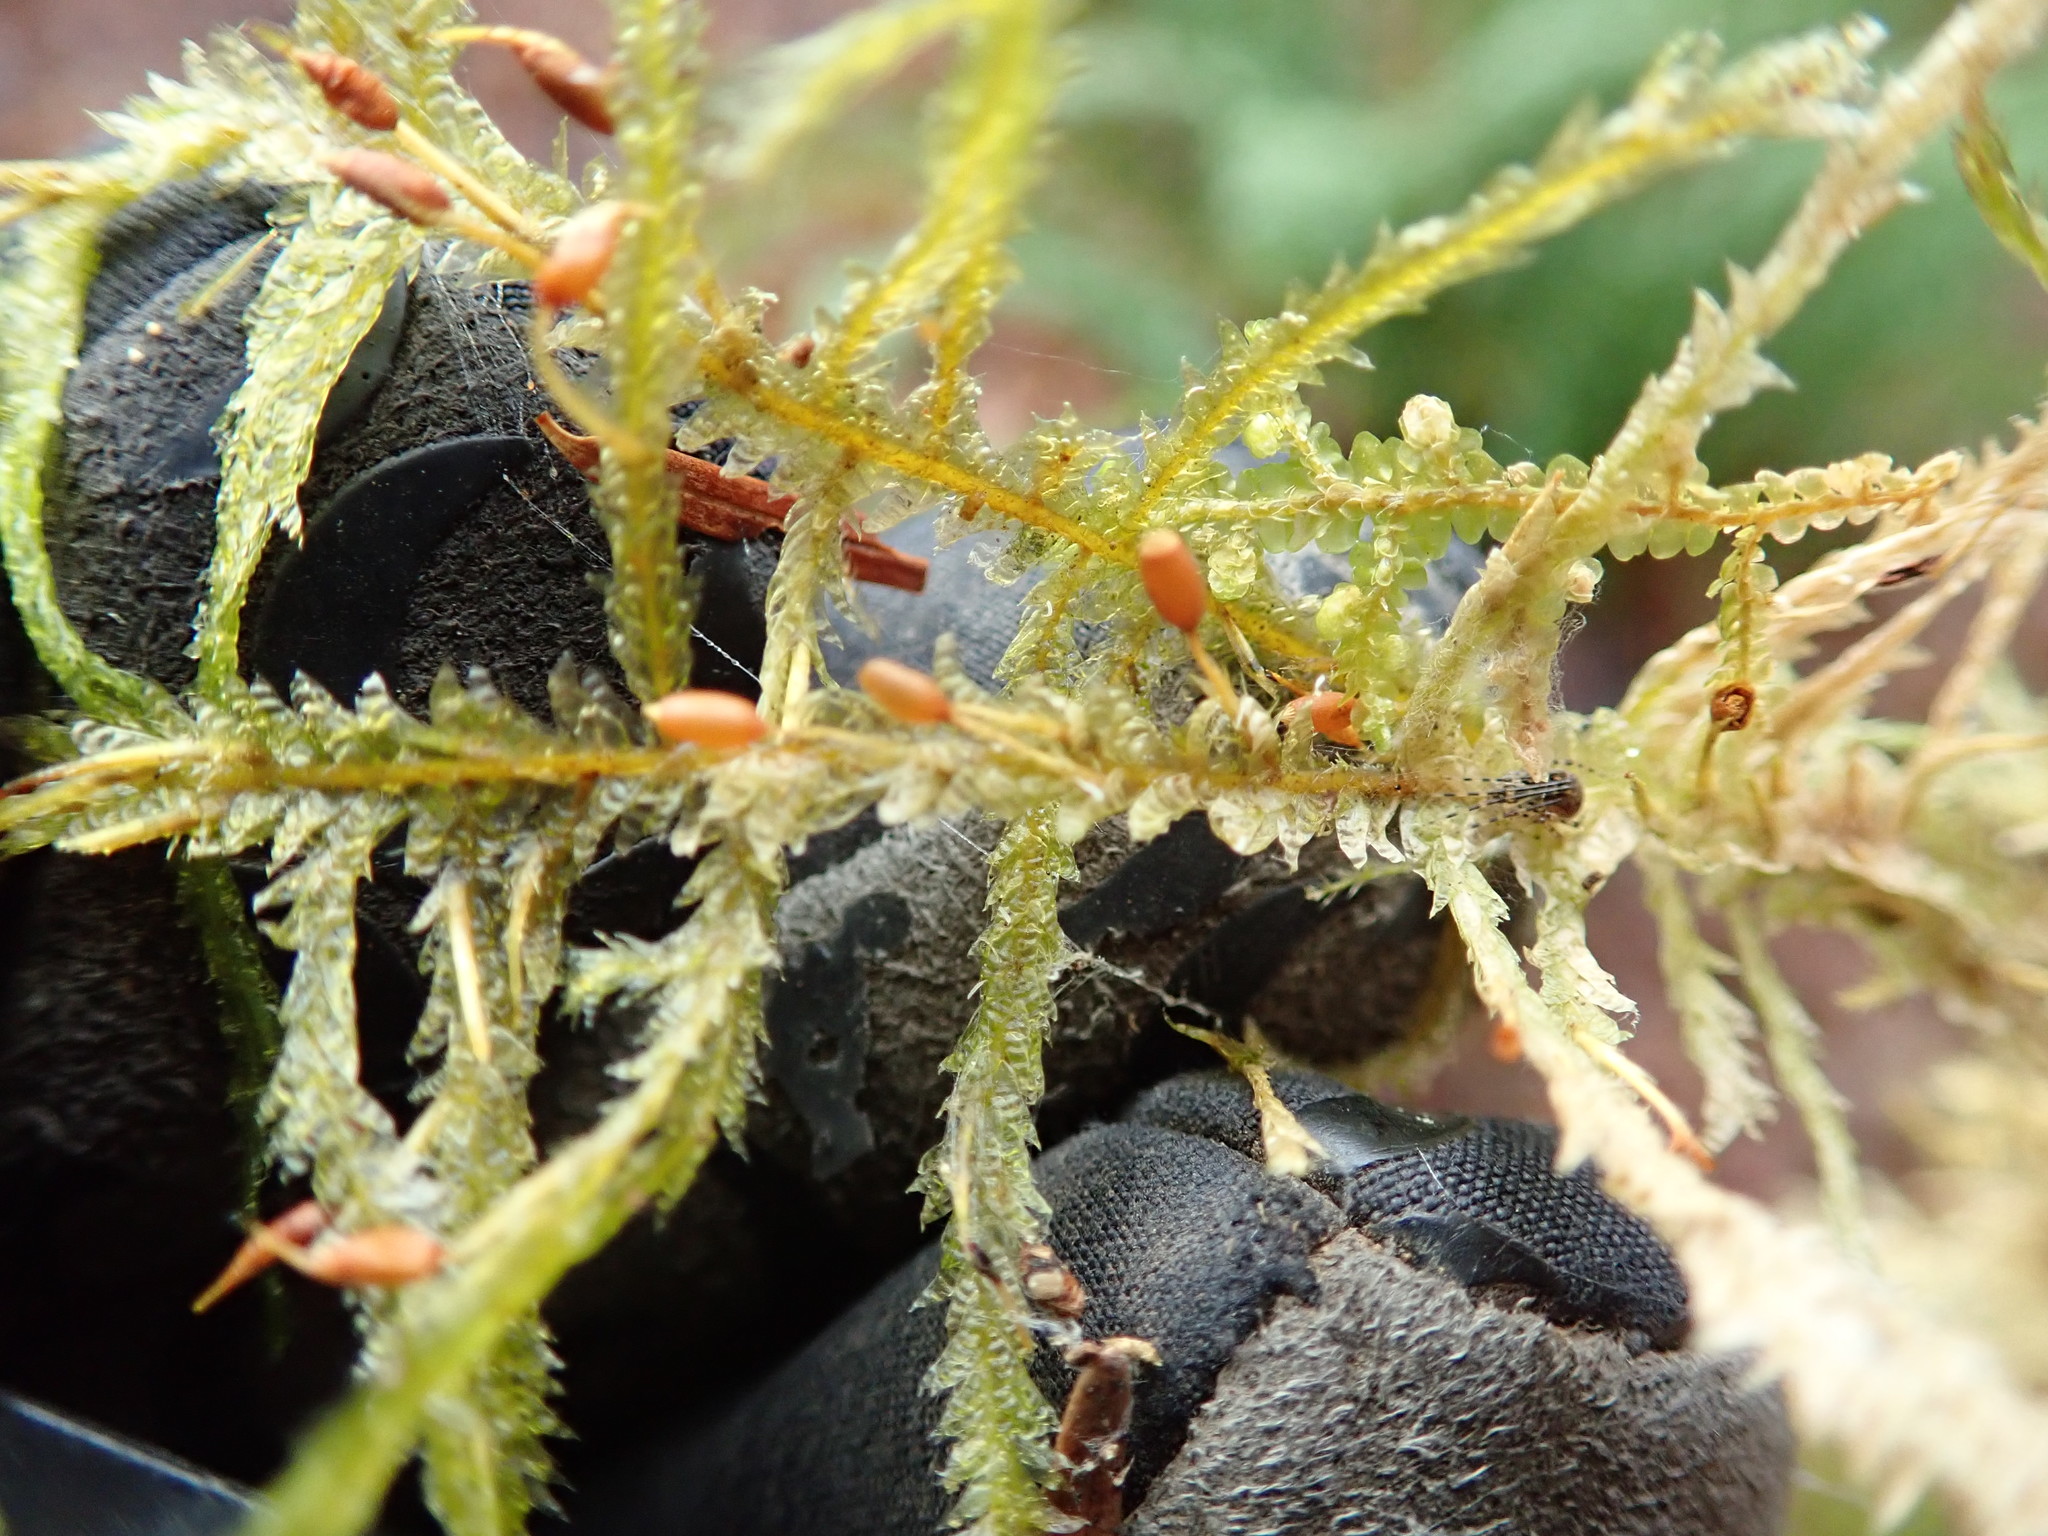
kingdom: Plantae
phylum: Bryophyta
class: Bryopsida
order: Hypnales
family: Neckeraceae
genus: Neckera
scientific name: Neckera douglasii
